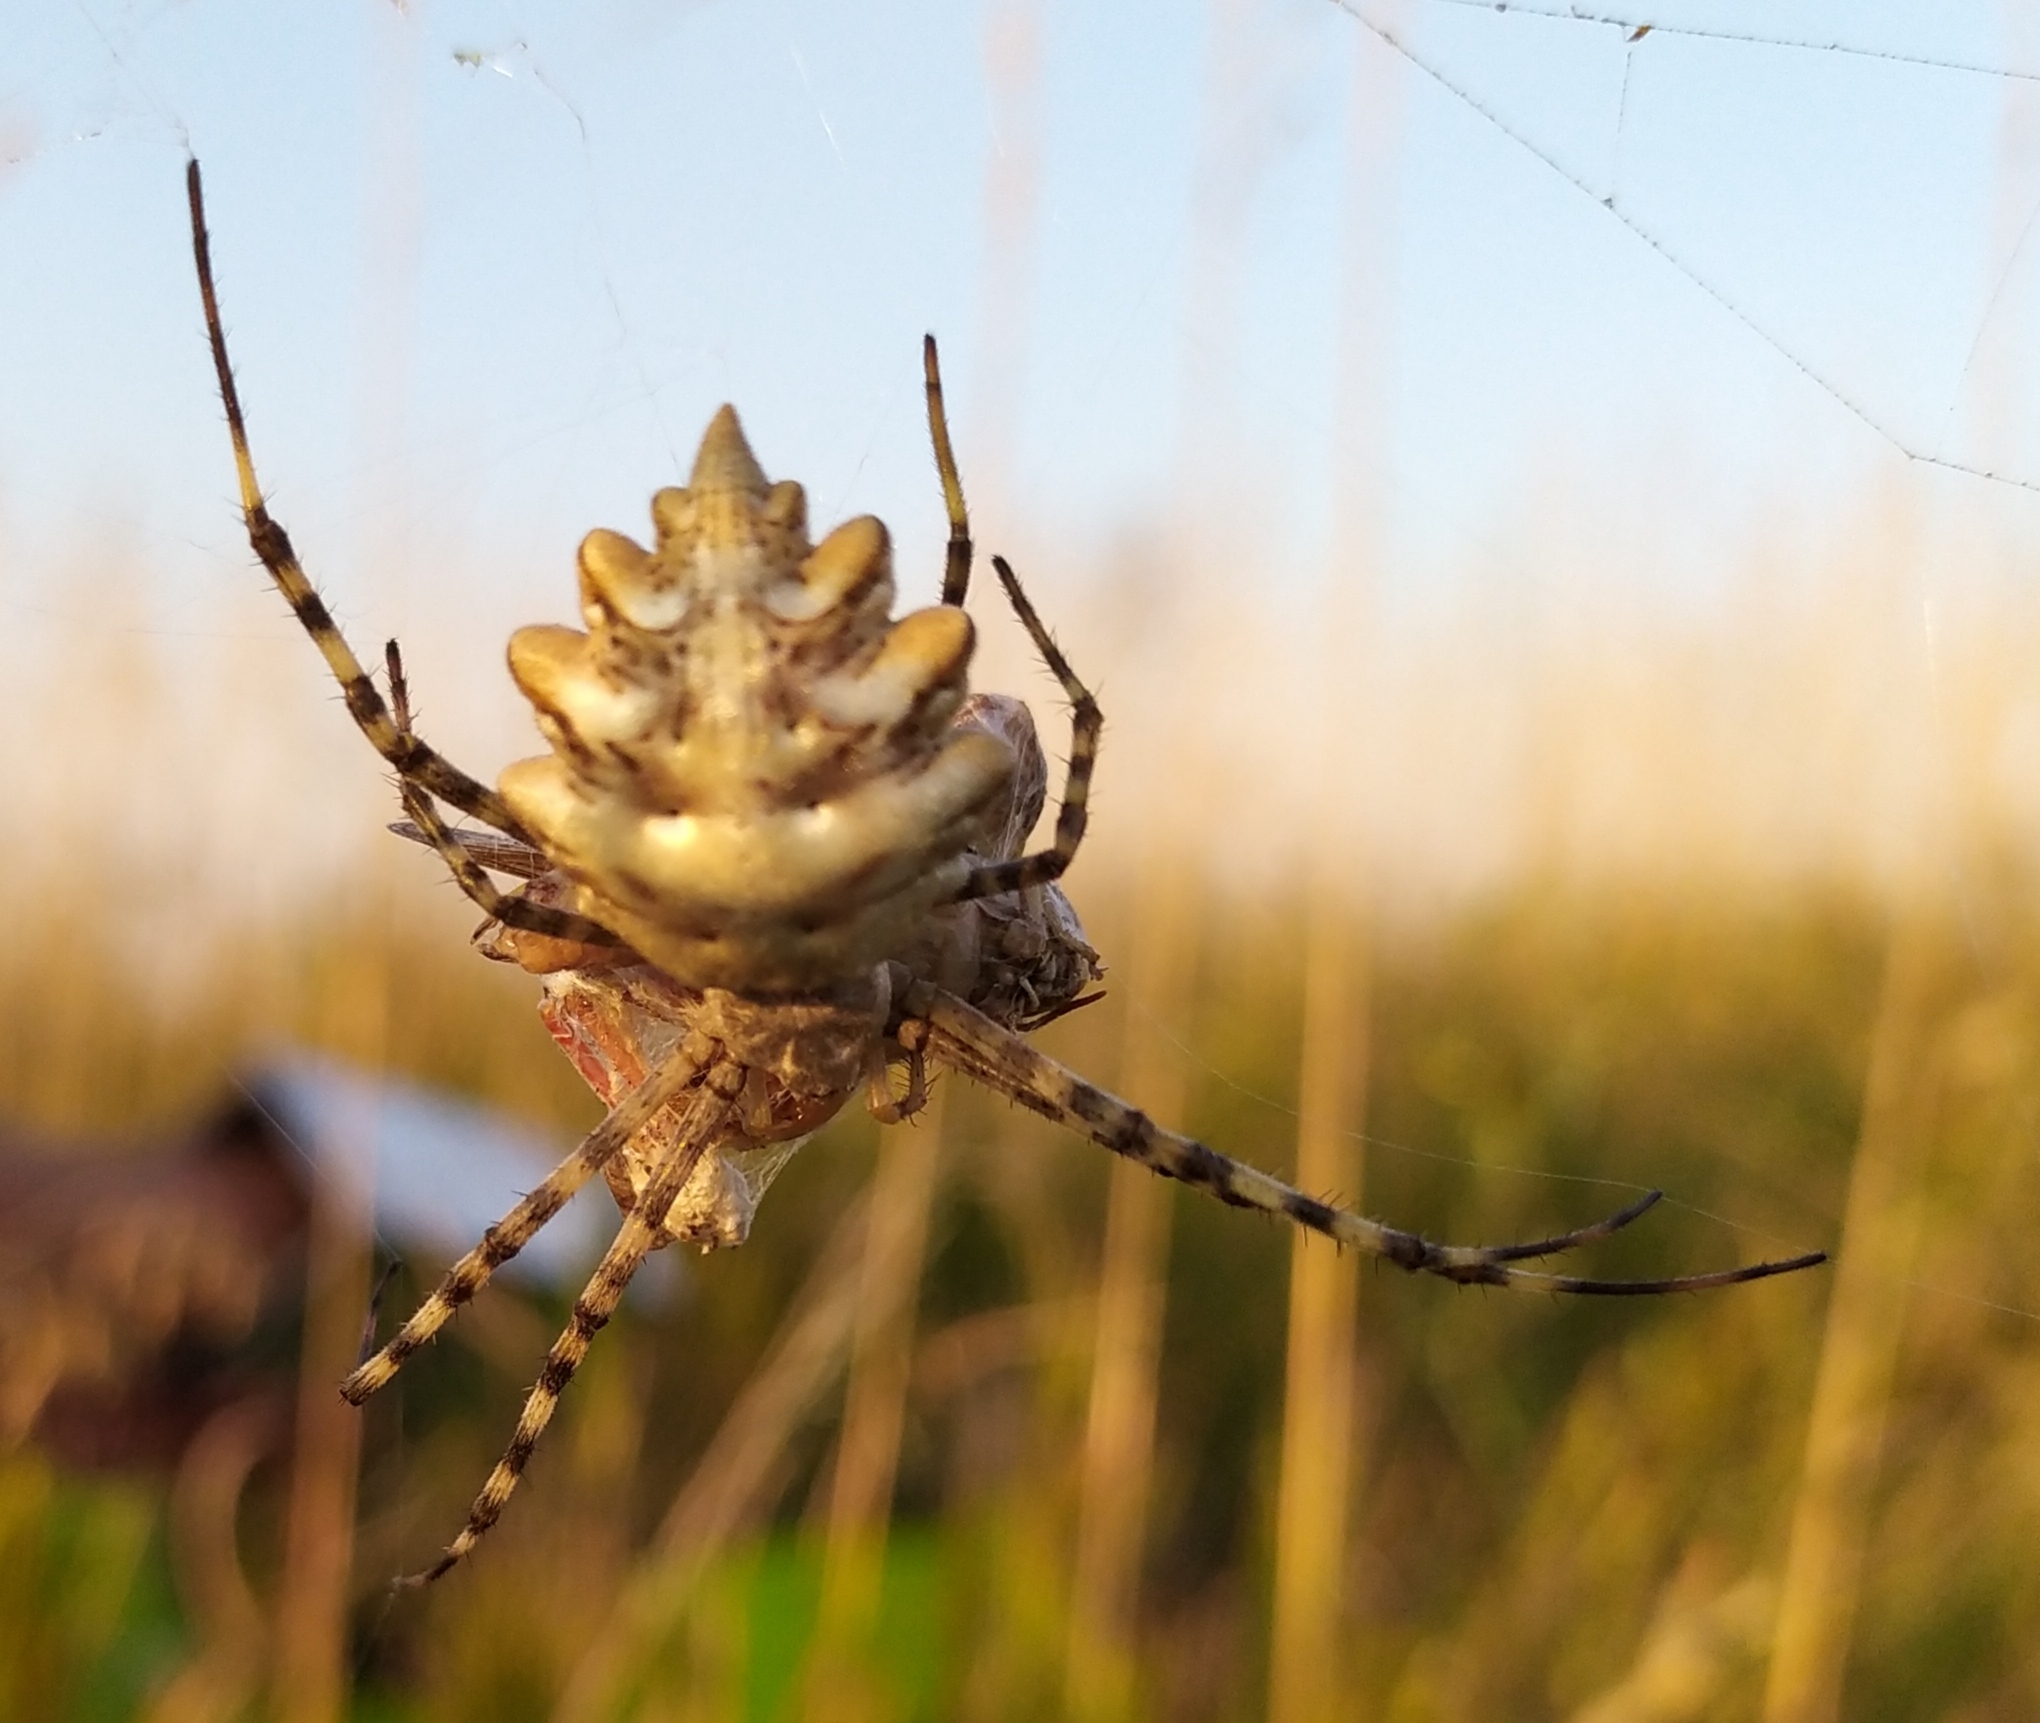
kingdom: Animalia
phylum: Arthropoda
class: Arachnida
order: Araneae
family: Araneidae
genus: Argiope
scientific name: Argiope lobata
